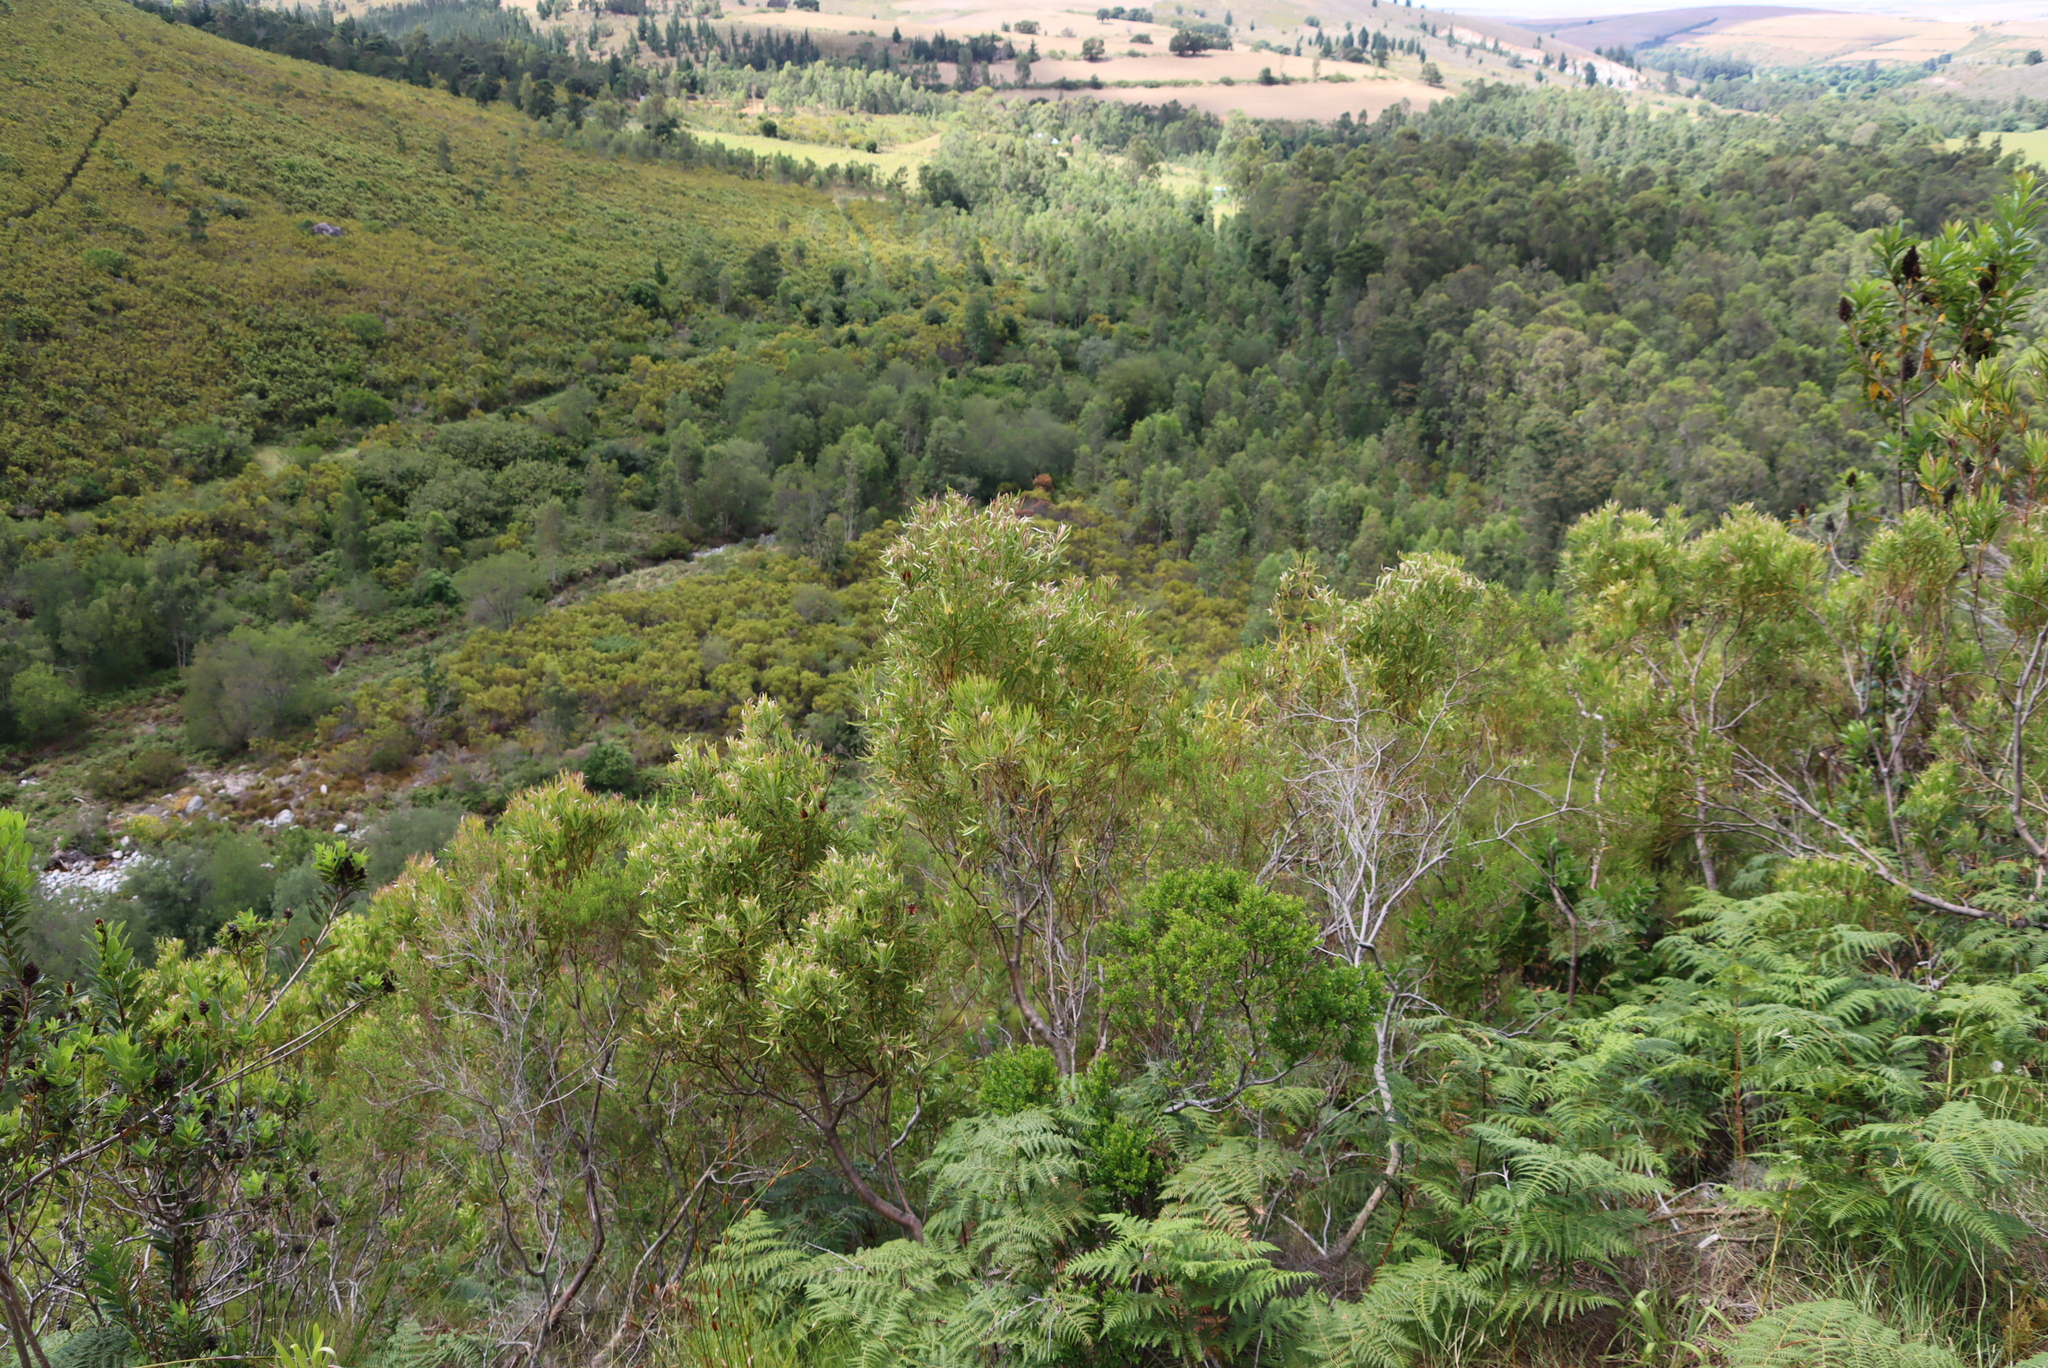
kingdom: Plantae
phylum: Tracheophyta
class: Polypodiopsida
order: Polypodiales
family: Dennstaedtiaceae
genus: Pteridium
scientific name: Pteridium aquilinum
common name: Bracken
